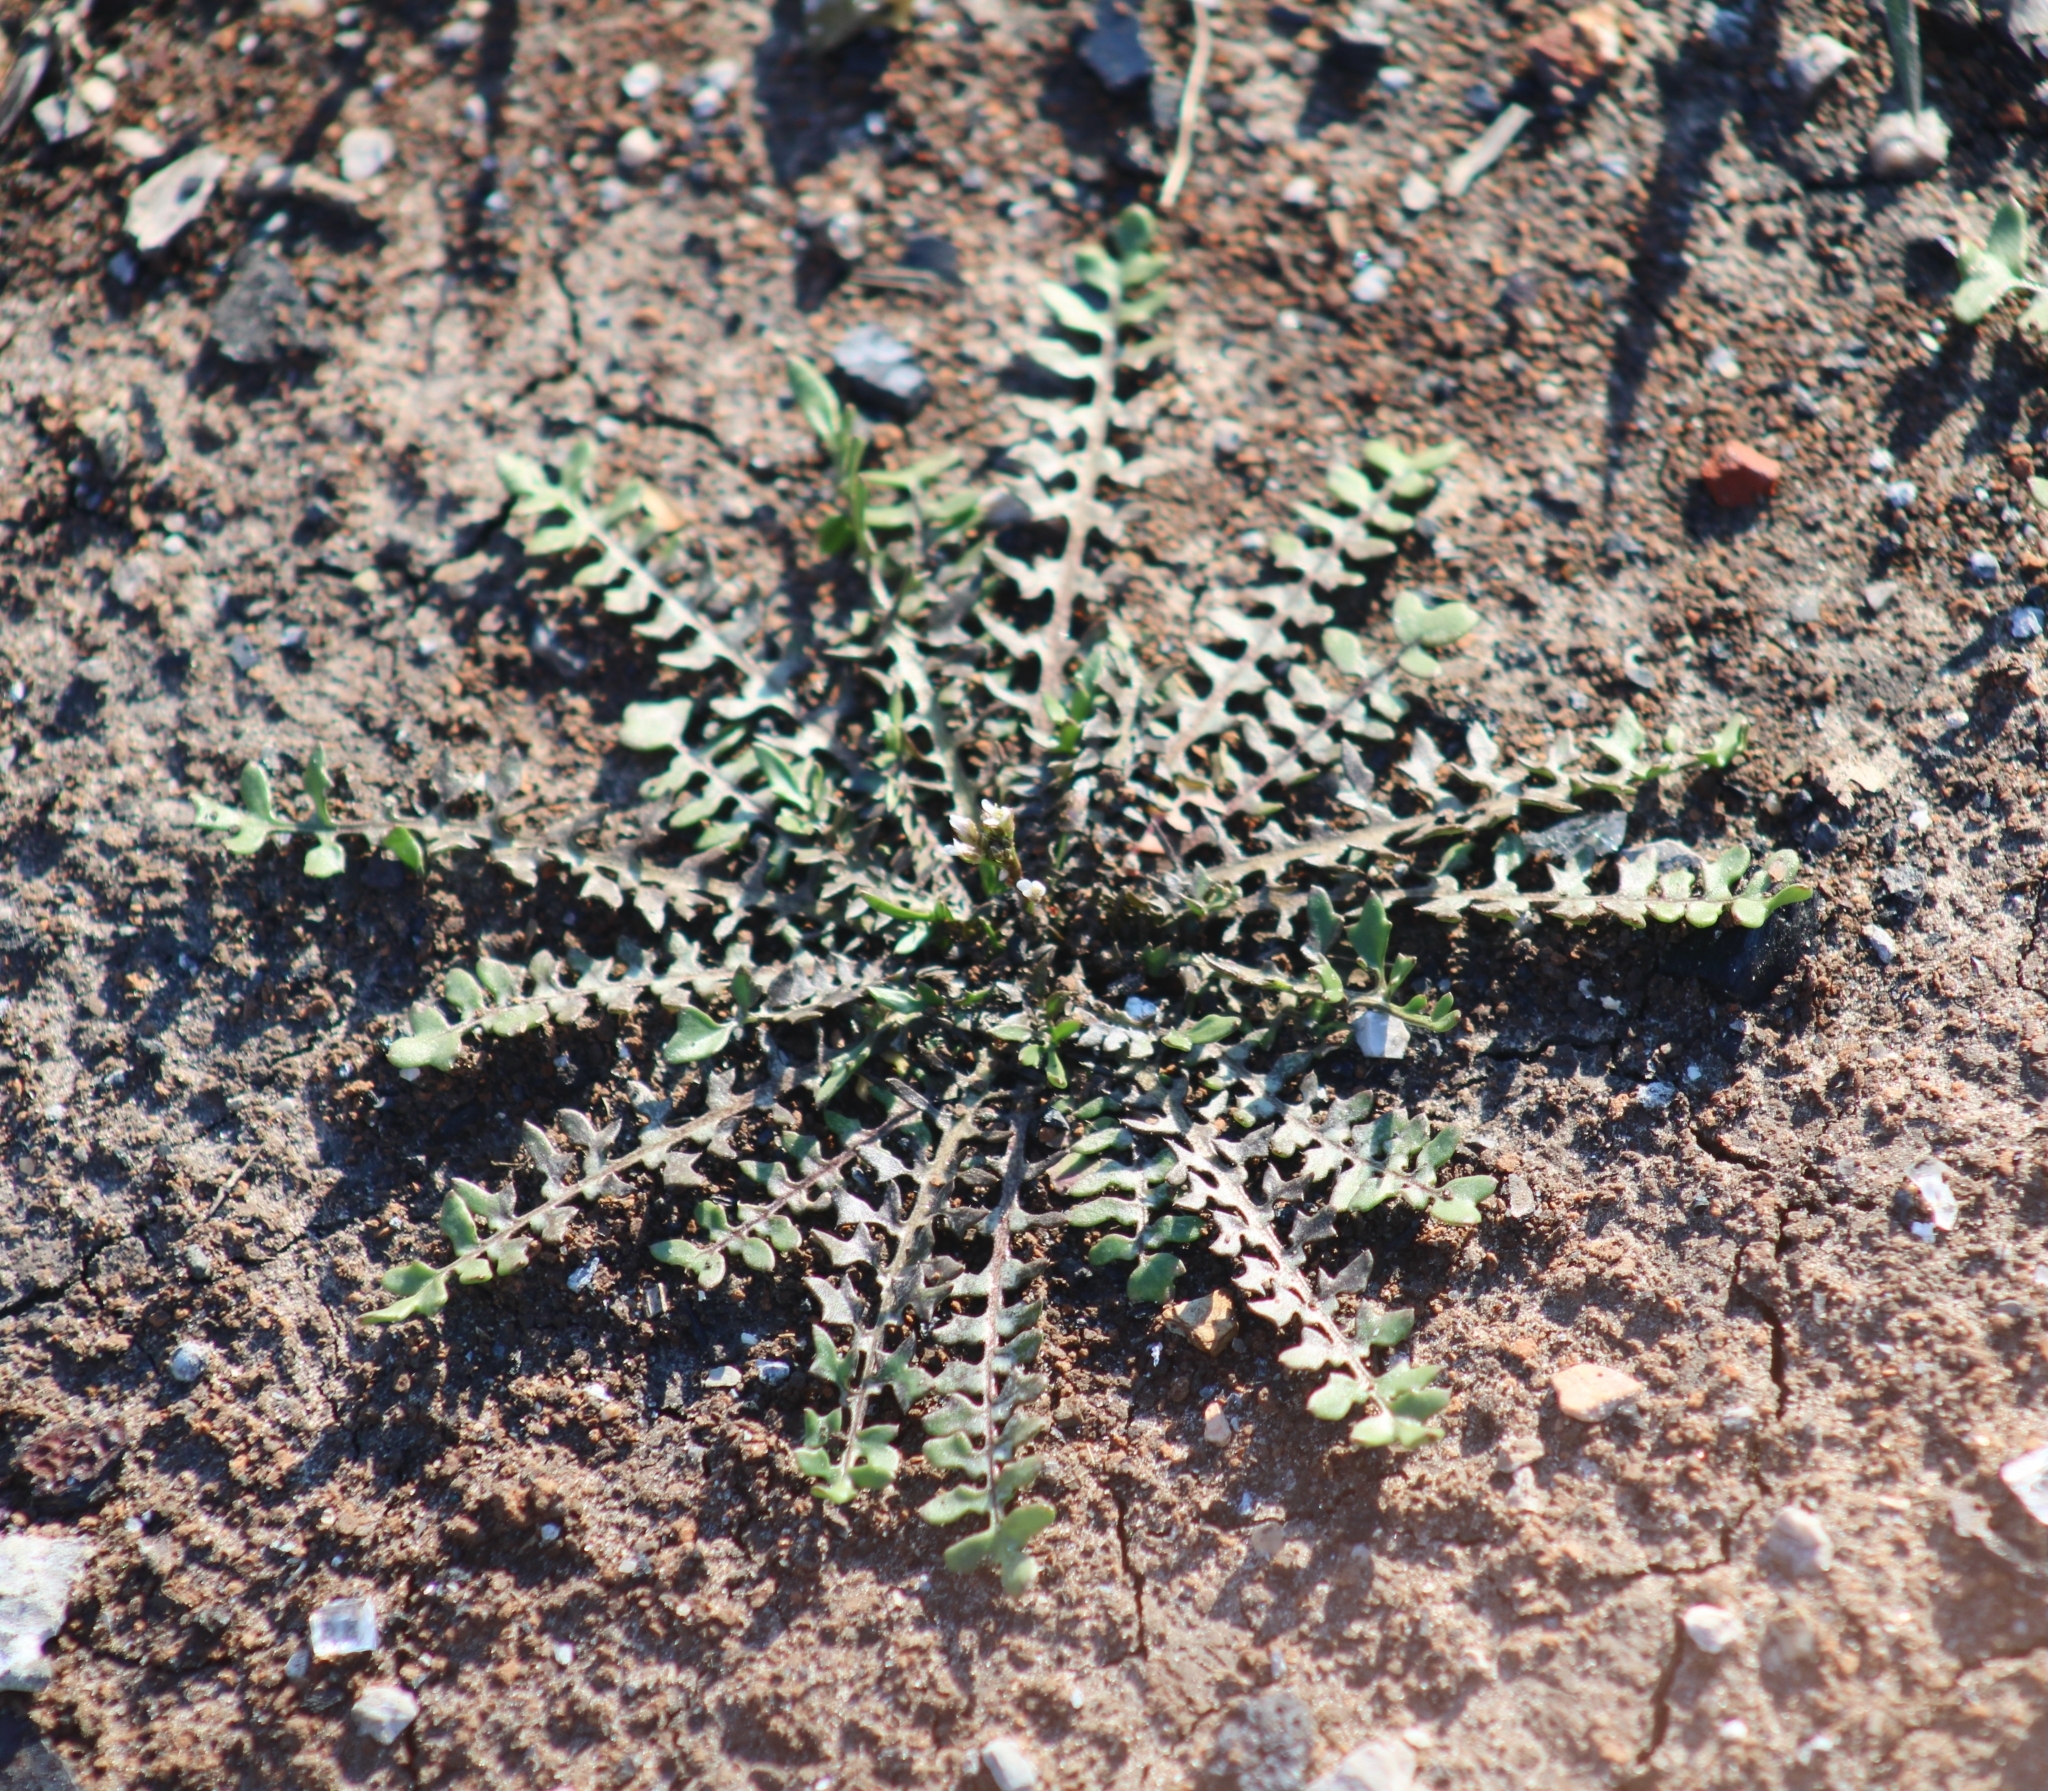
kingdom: Plantae
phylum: Tracheophyta
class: Magnoliopsida
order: Brassicales
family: Brassicaceae
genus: Planodes
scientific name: Planodes virginicum
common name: Virginia cress
